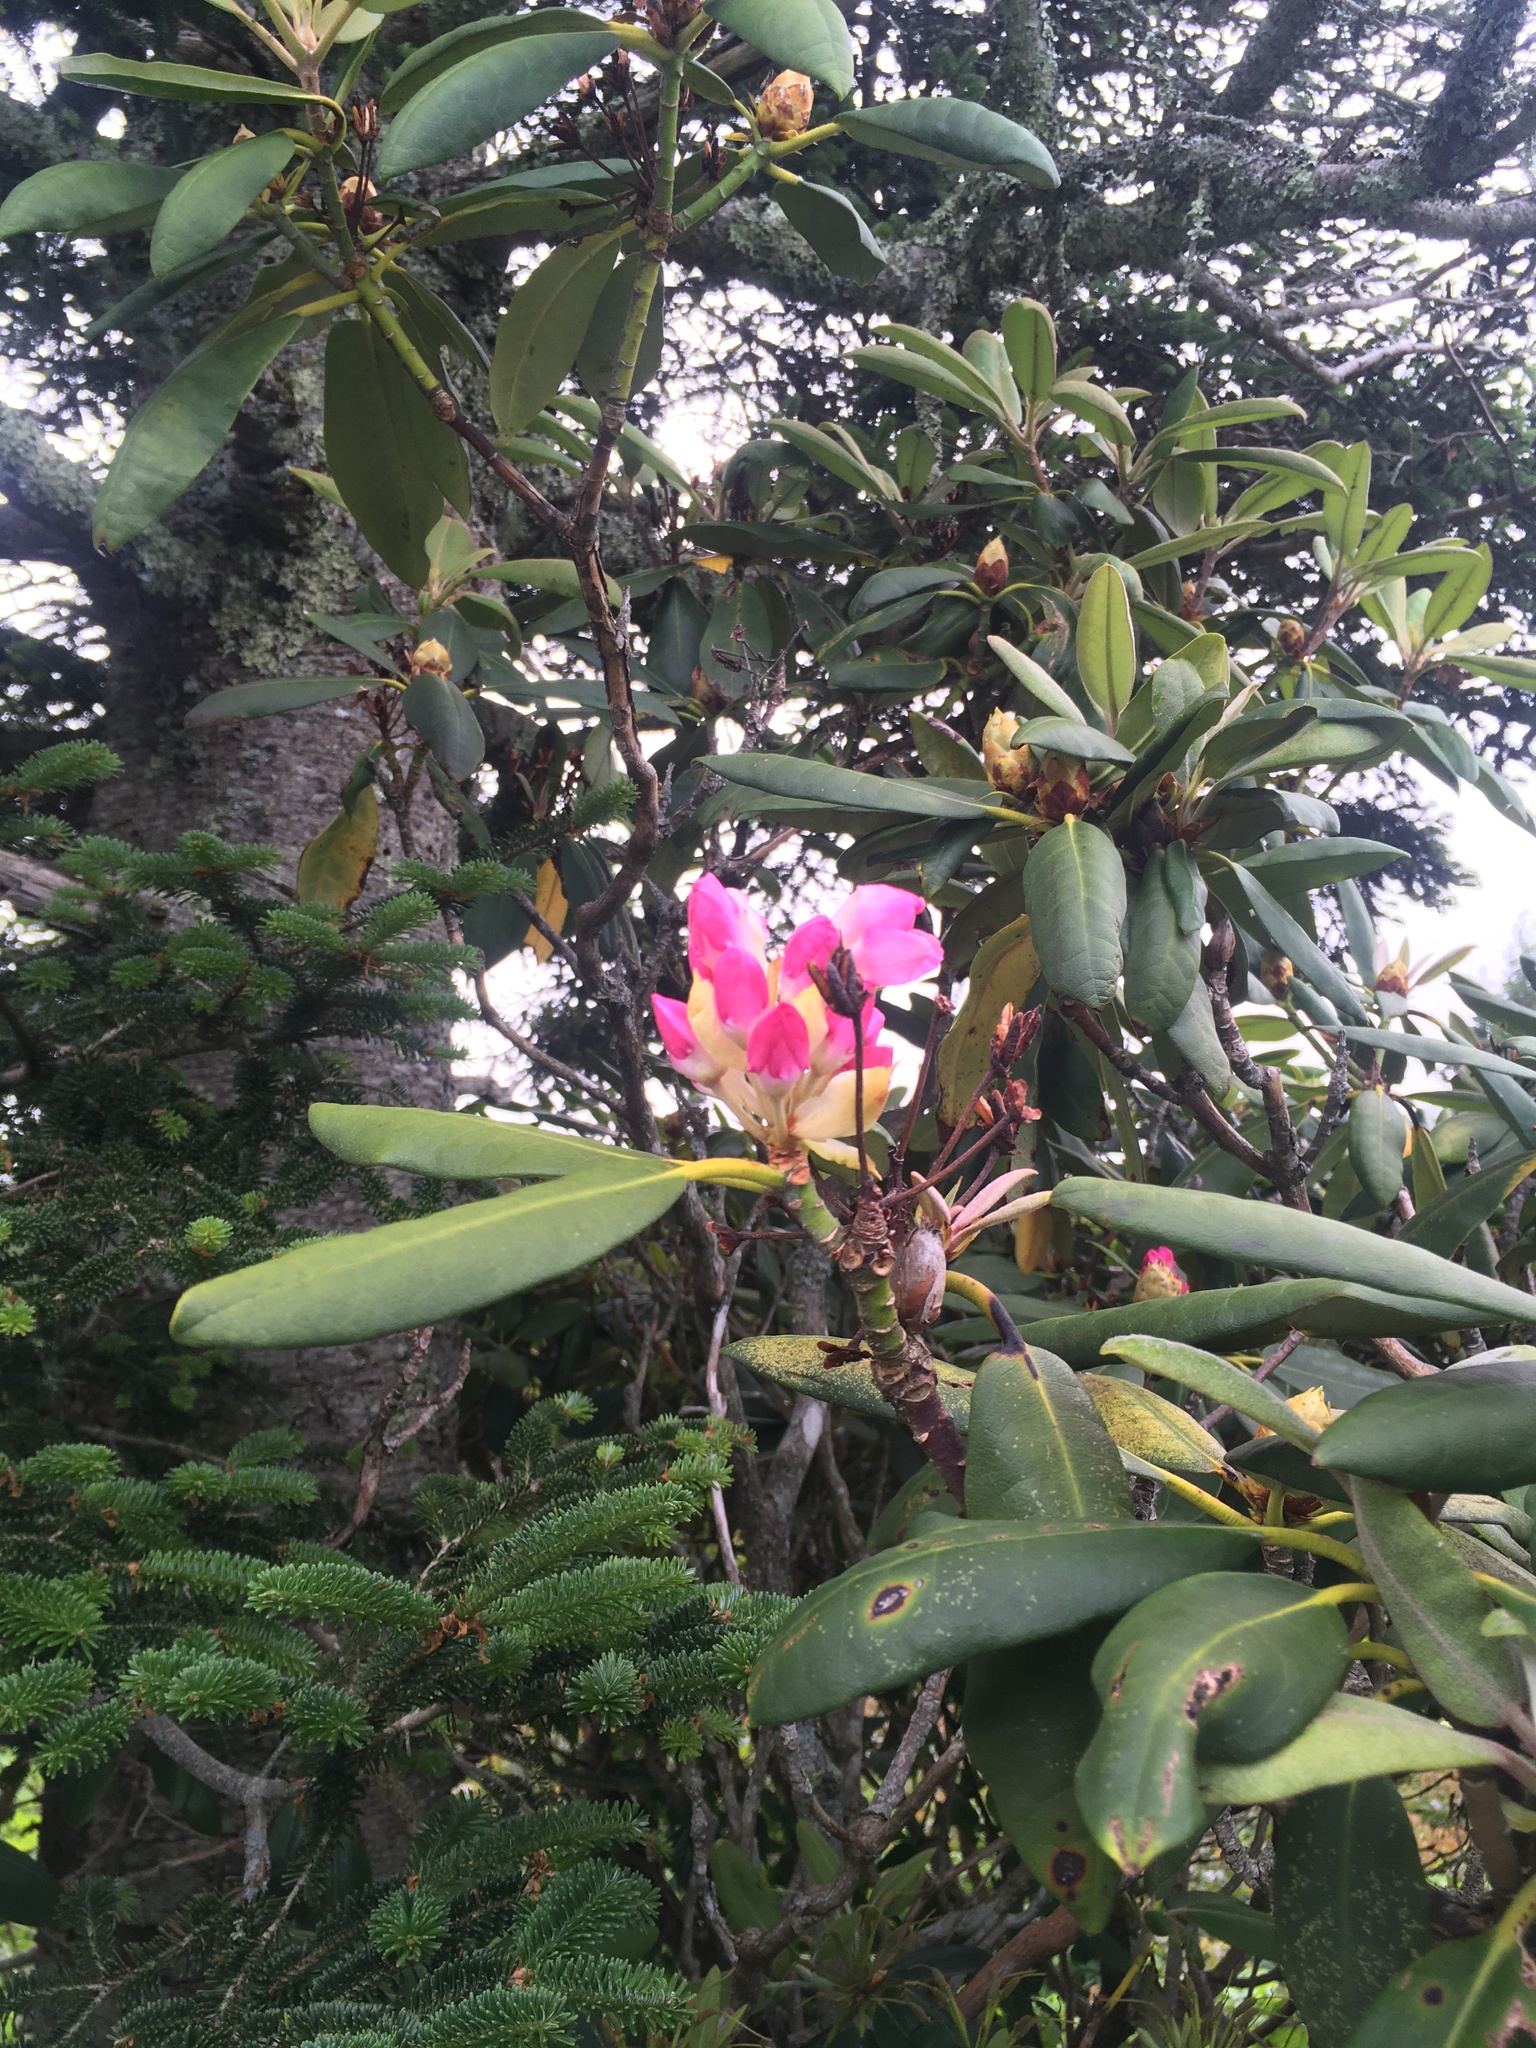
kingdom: Plantae
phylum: Tracheophyta
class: Magnoliopsida
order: Ericales
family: Ericaceae
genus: Rhododendron
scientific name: Rhododendron catawbiense
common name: Catawba rhododendron
